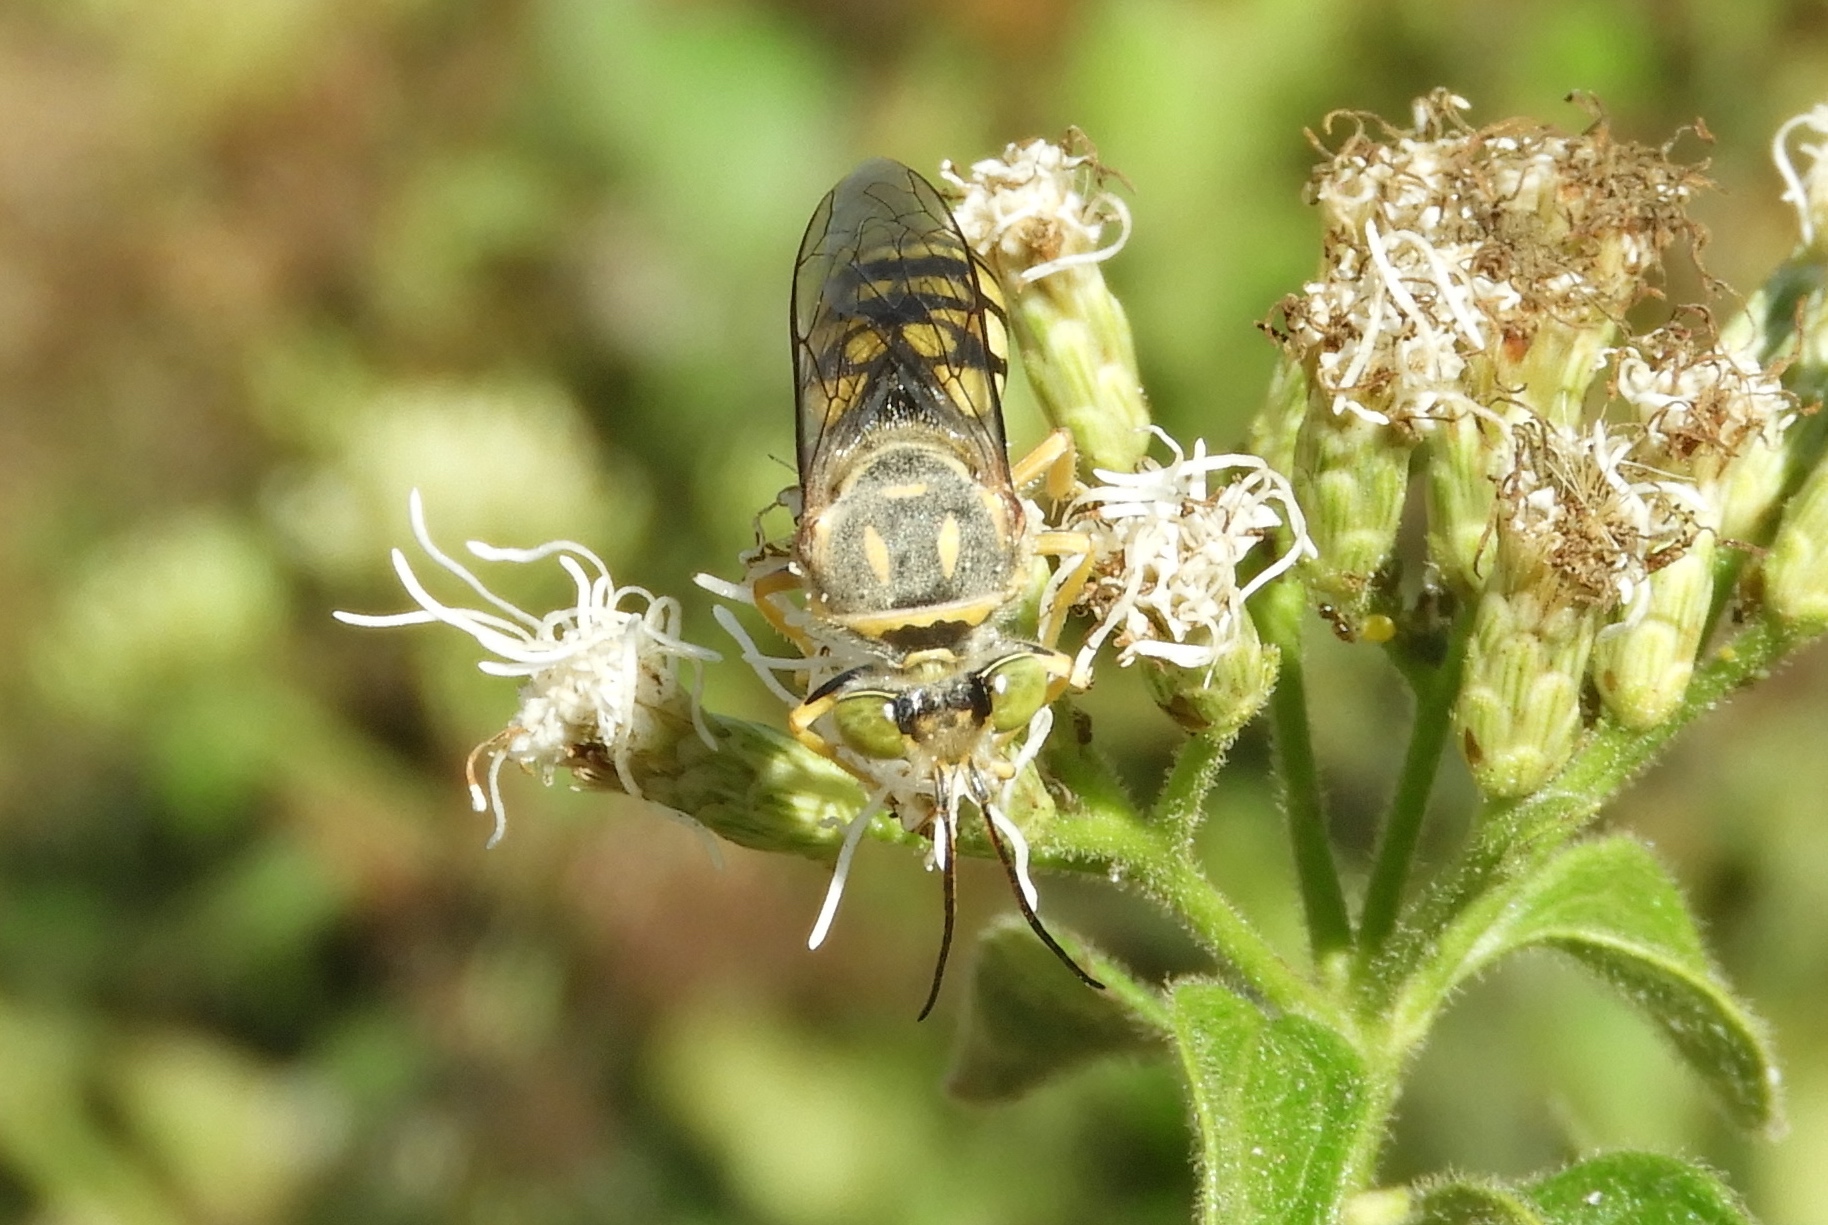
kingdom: Animalia
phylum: Arthropoda
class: Insecta
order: Hymenoptera
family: Crabronidae
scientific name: Crabronidae
